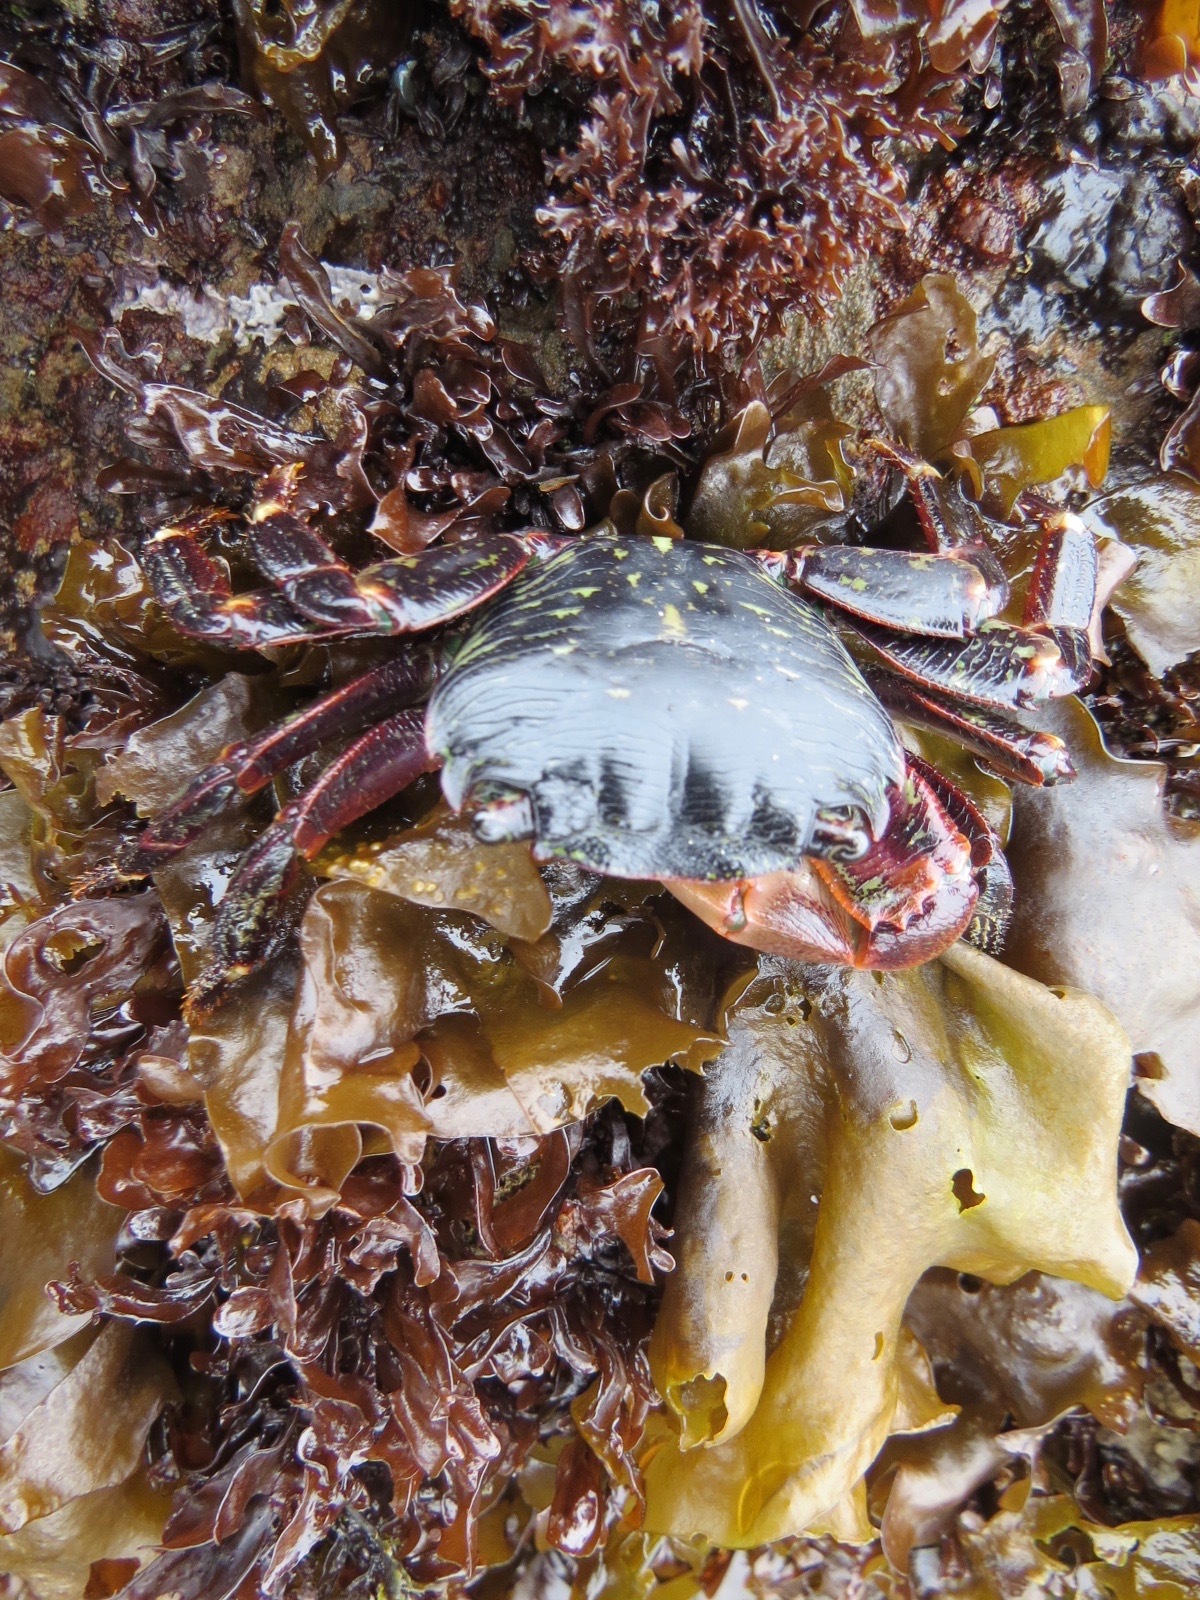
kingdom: Animalia
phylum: Arthropoda
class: Malacostraca
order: Decapoda
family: Grapsidae
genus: Pachygrapsus
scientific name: Pachygrapsus crassipes
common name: Striped shore crab
